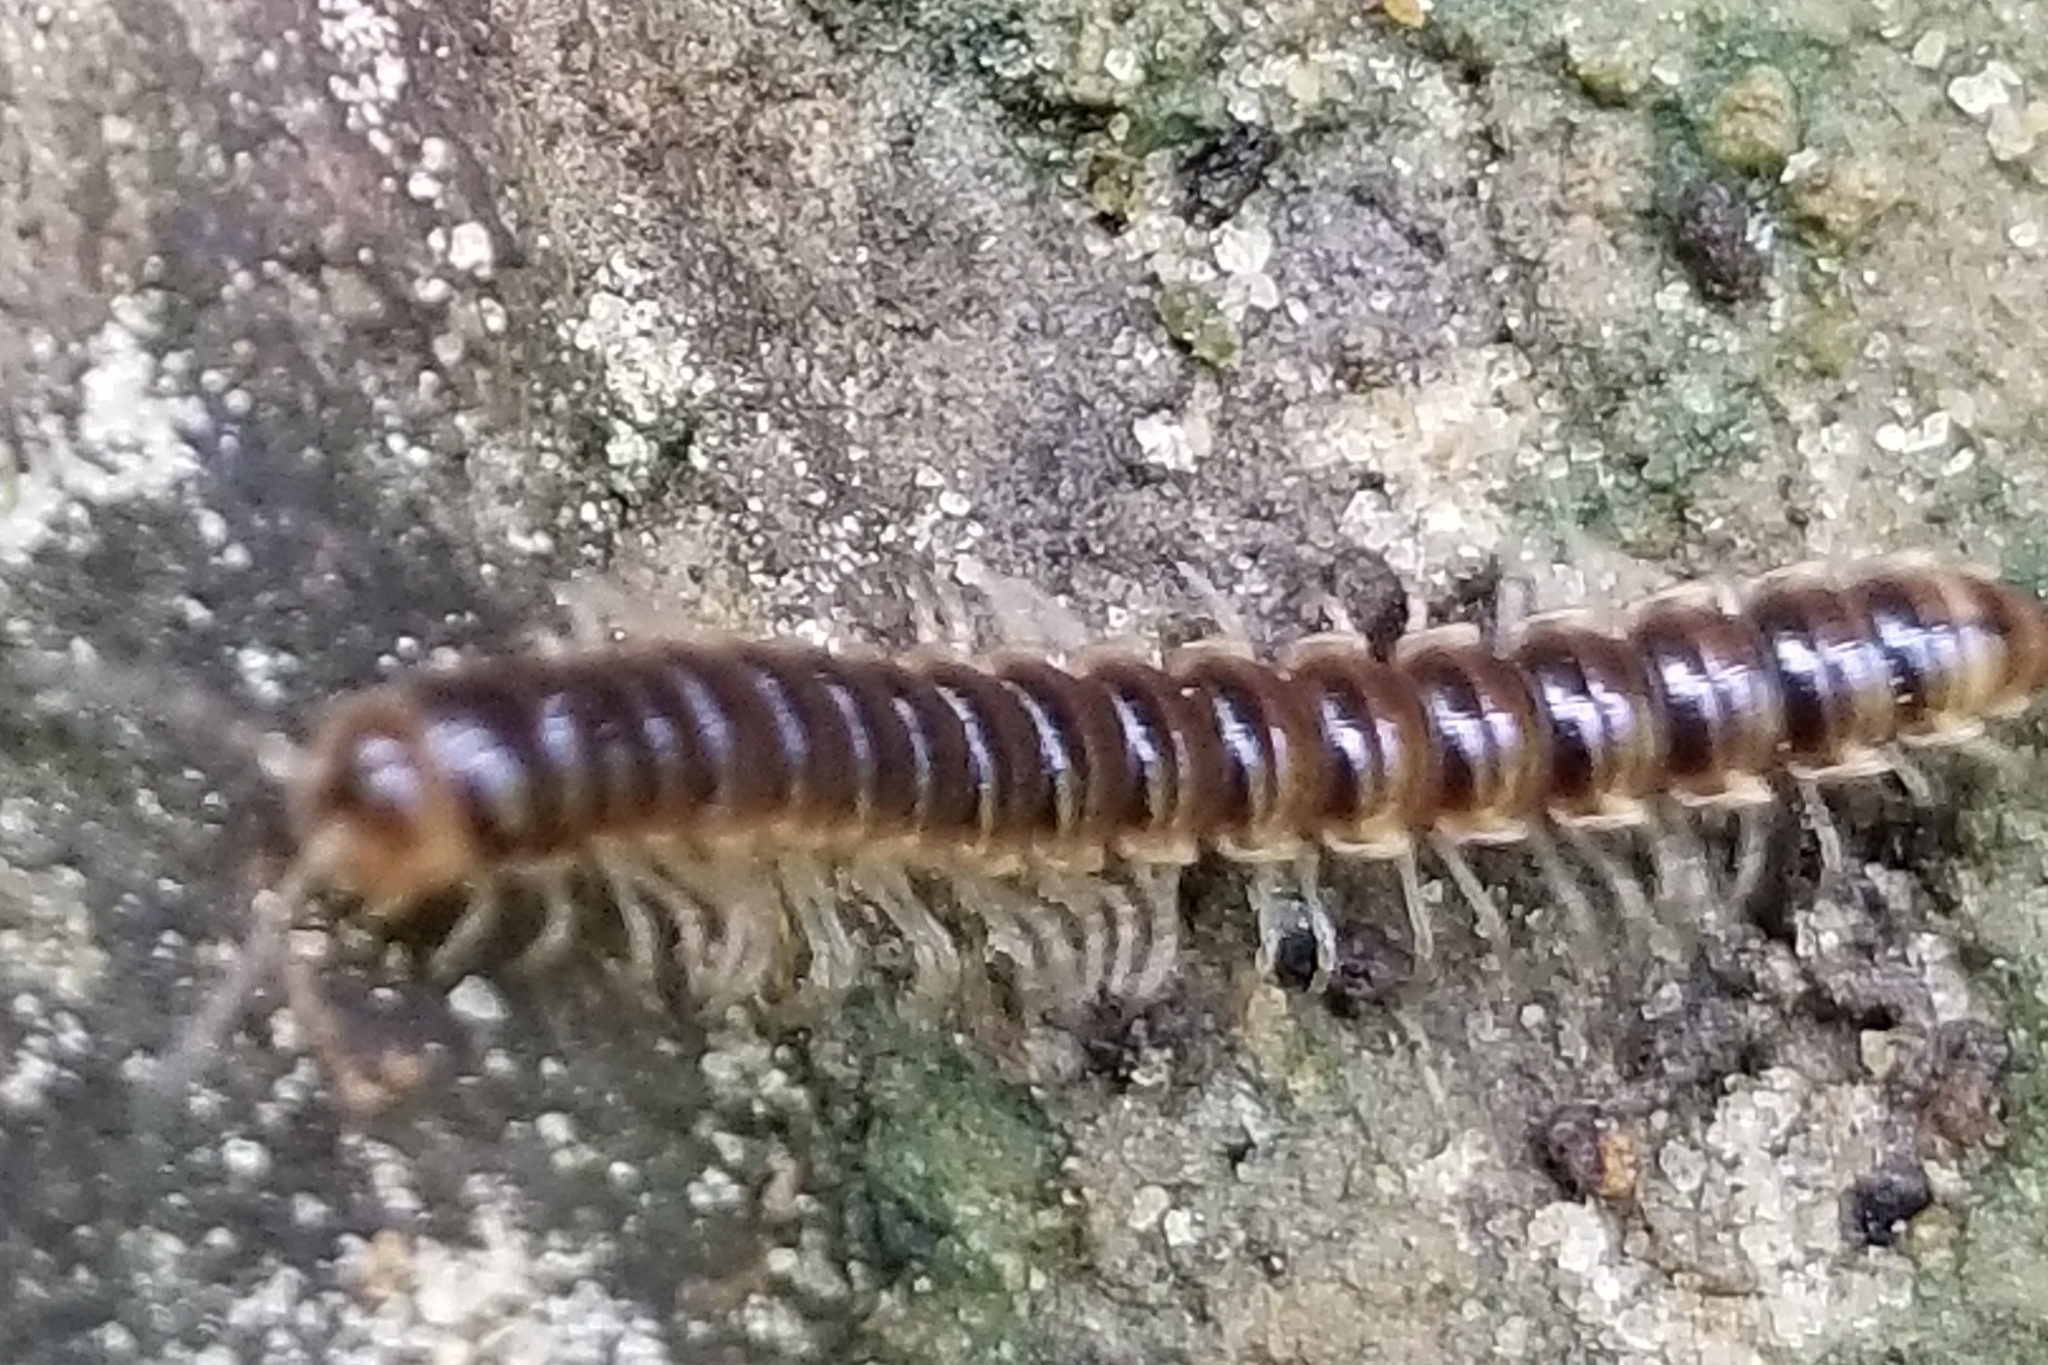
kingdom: Animalia
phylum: Arthropoda
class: Diplopoda
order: Polydesmida
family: Paradoxosomatidae
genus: Oxidus
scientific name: Oxidus gracilis
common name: Greenhouse millipede
